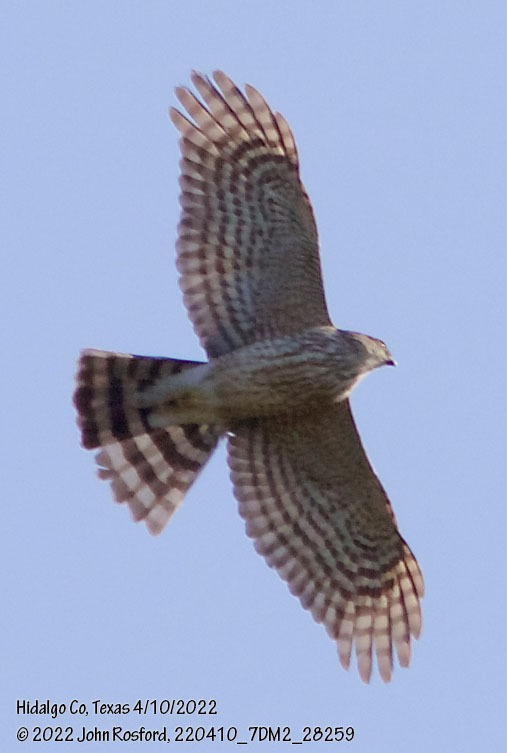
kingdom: Animalia
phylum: Chordata
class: Aves
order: Accipitriformes
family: Accipitridae
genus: Accipiter
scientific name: Accipiter striatus
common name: Sharp-shinned hawk
